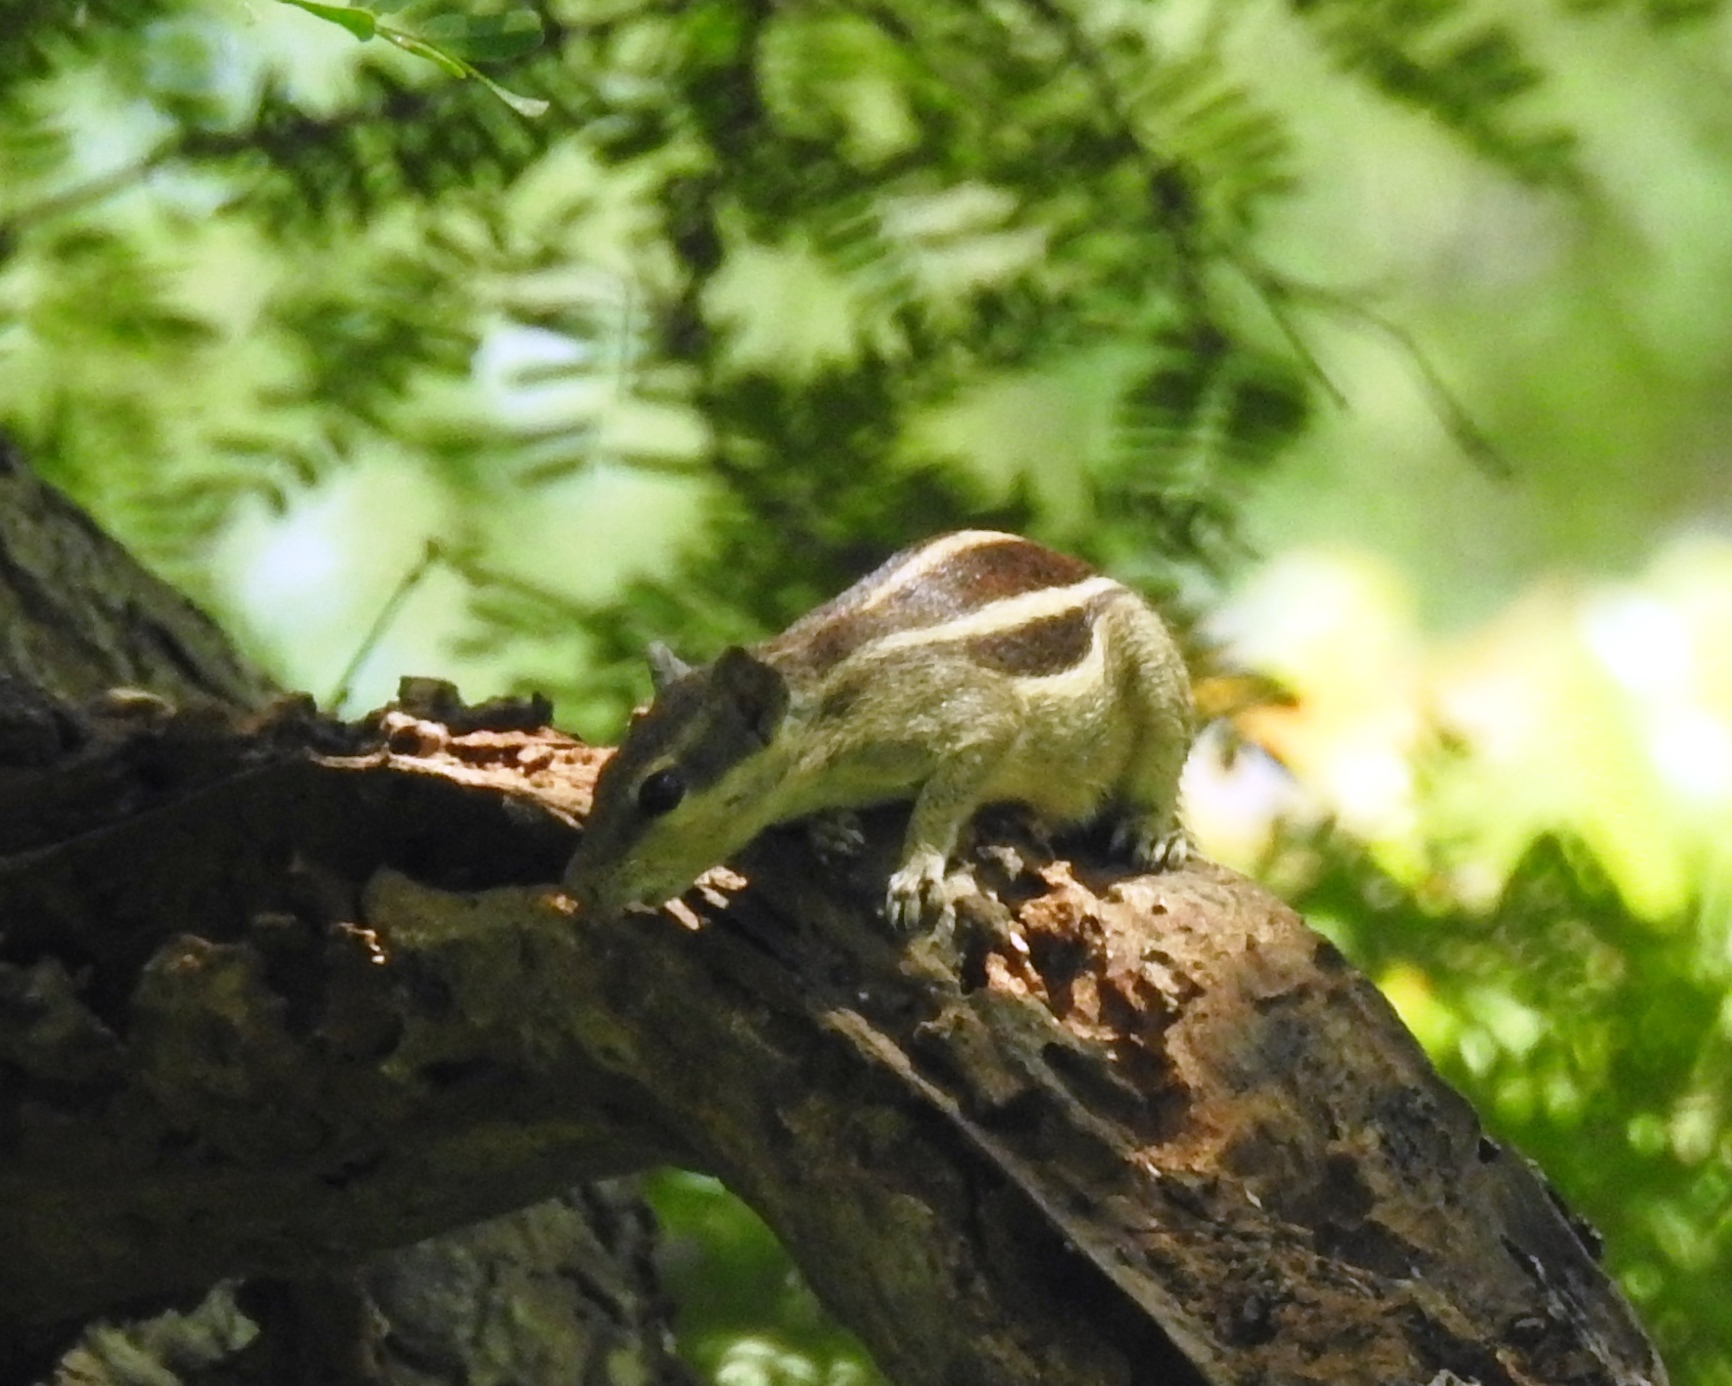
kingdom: Animalia
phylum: Chordata
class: Mammalia
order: Rodentia
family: Sciuridae
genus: Funambulus
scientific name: Funambulus pennantii
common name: Northern palm squirrel
